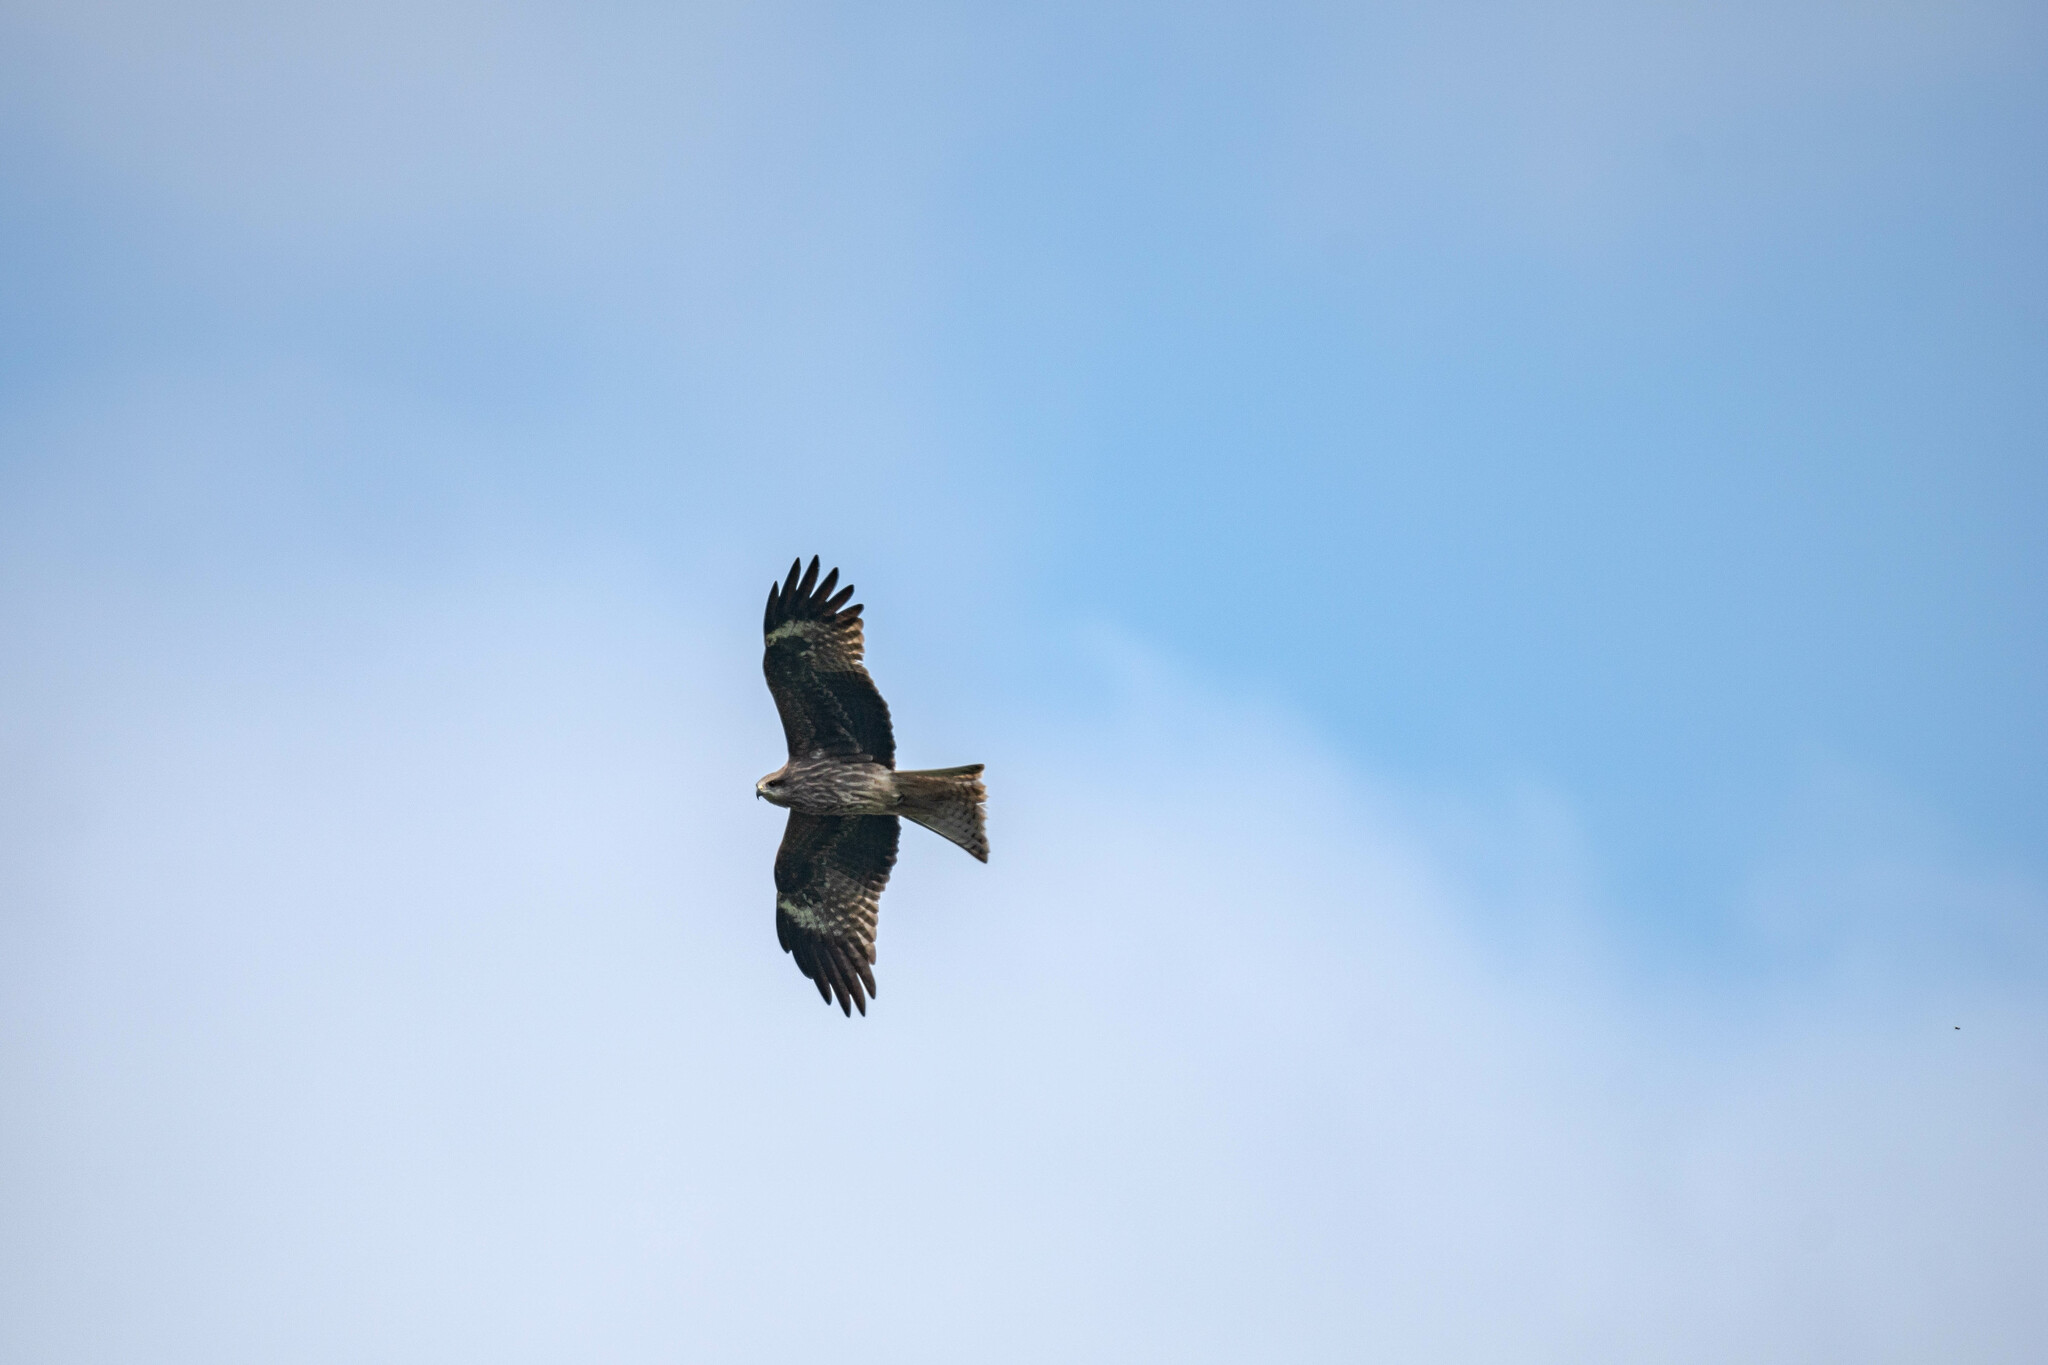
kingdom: Animalia
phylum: Chordata
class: Aves
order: Accipitriformes
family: Accipitridae
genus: Milvus
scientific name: Milvus migrans
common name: Black kite
